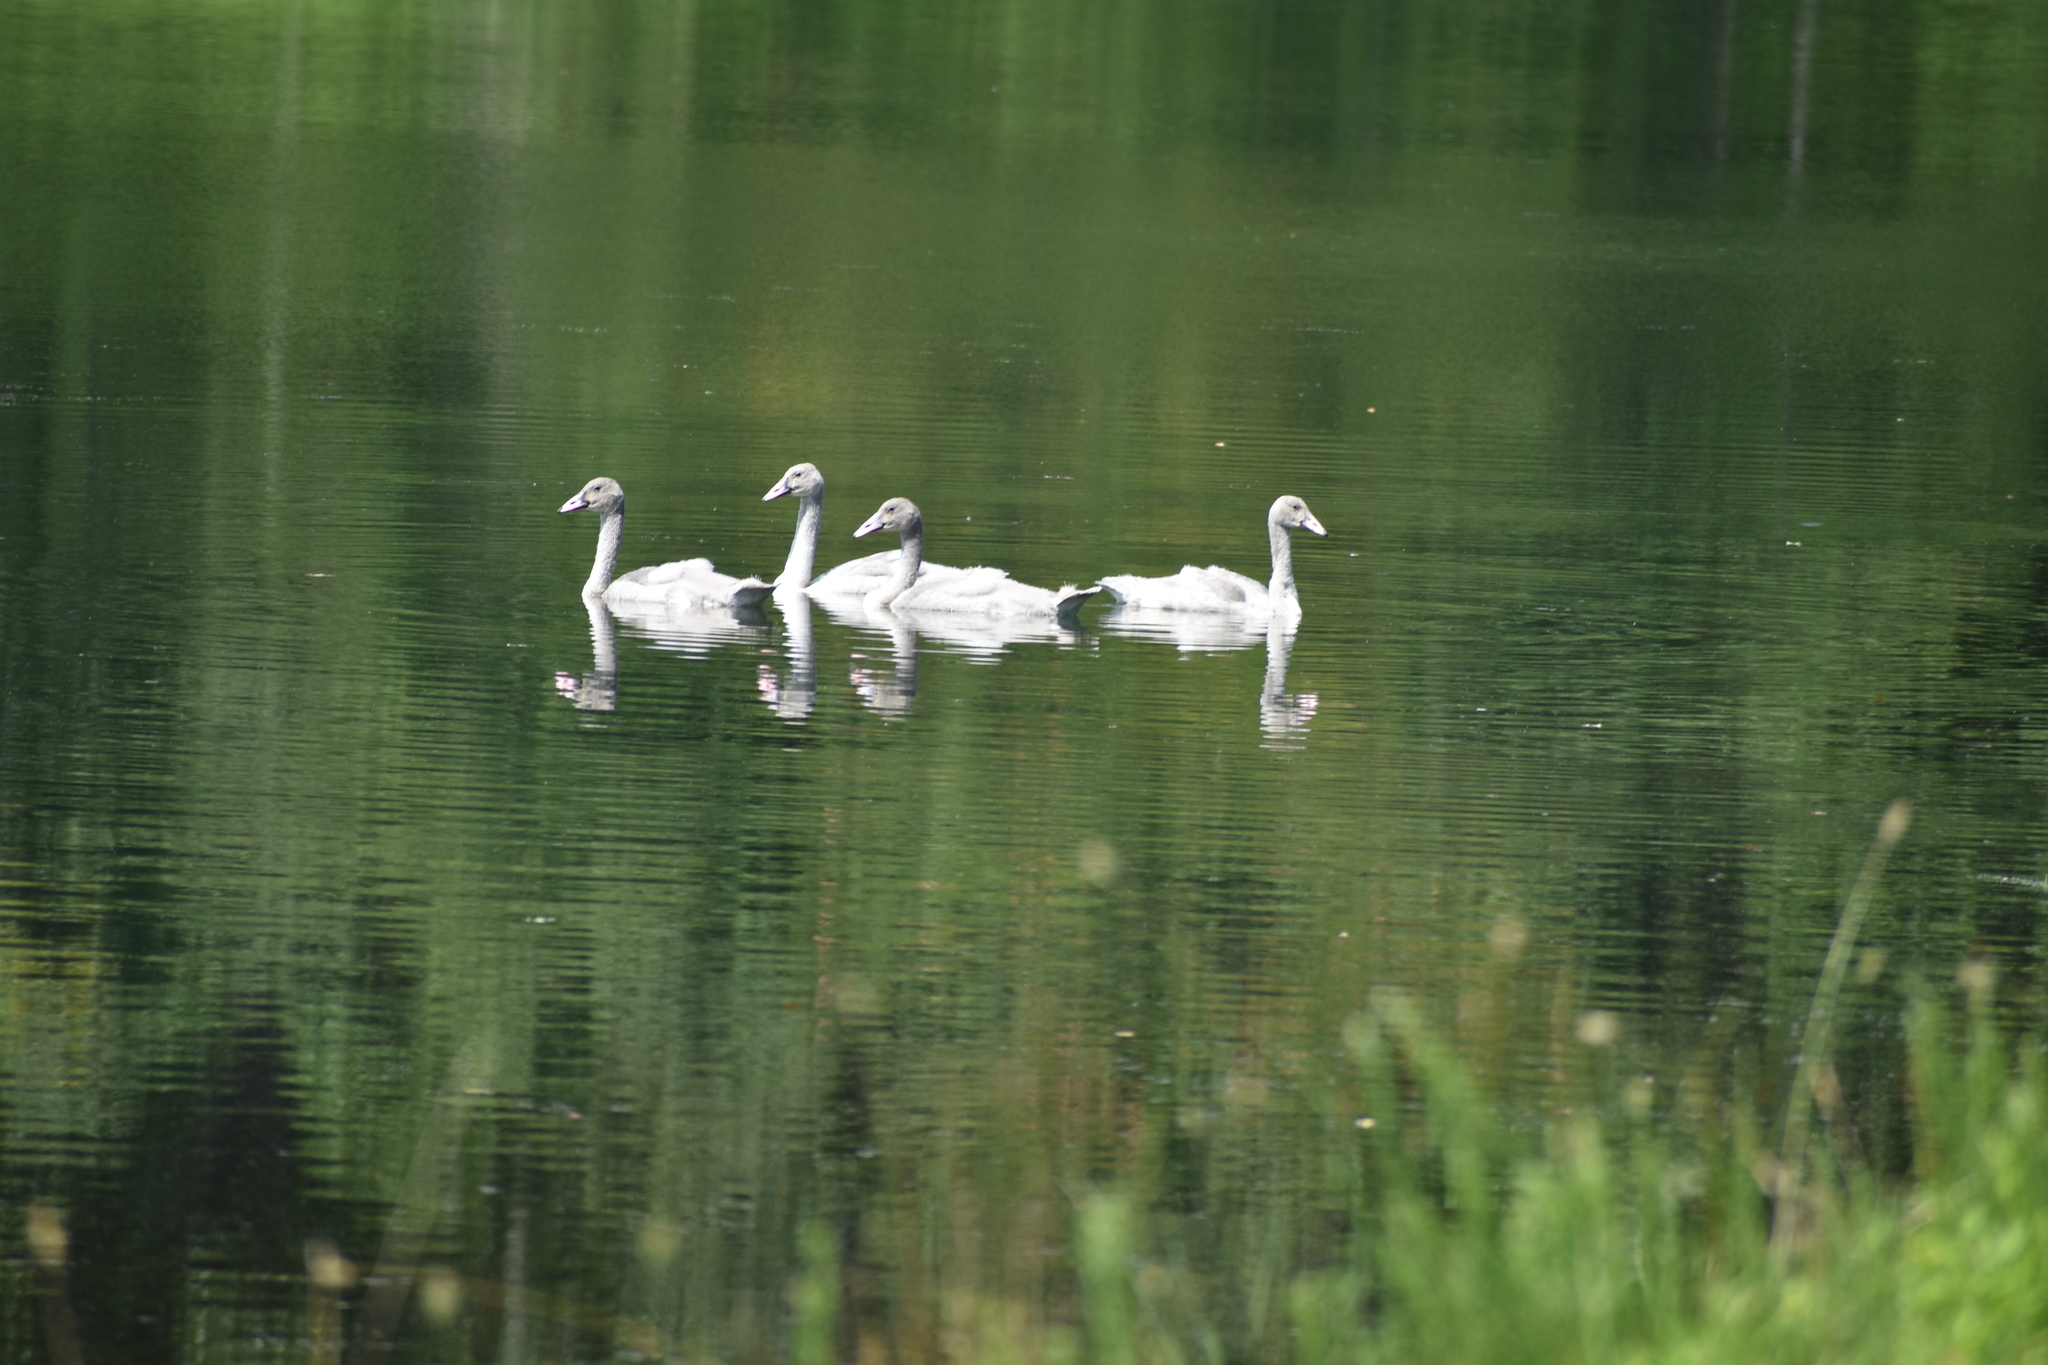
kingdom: Animalia
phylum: Chordata
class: Aves
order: Anseriformes
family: Anatidae
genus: Cygnus
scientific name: Cygnus buccinator
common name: Trumpeter swan
